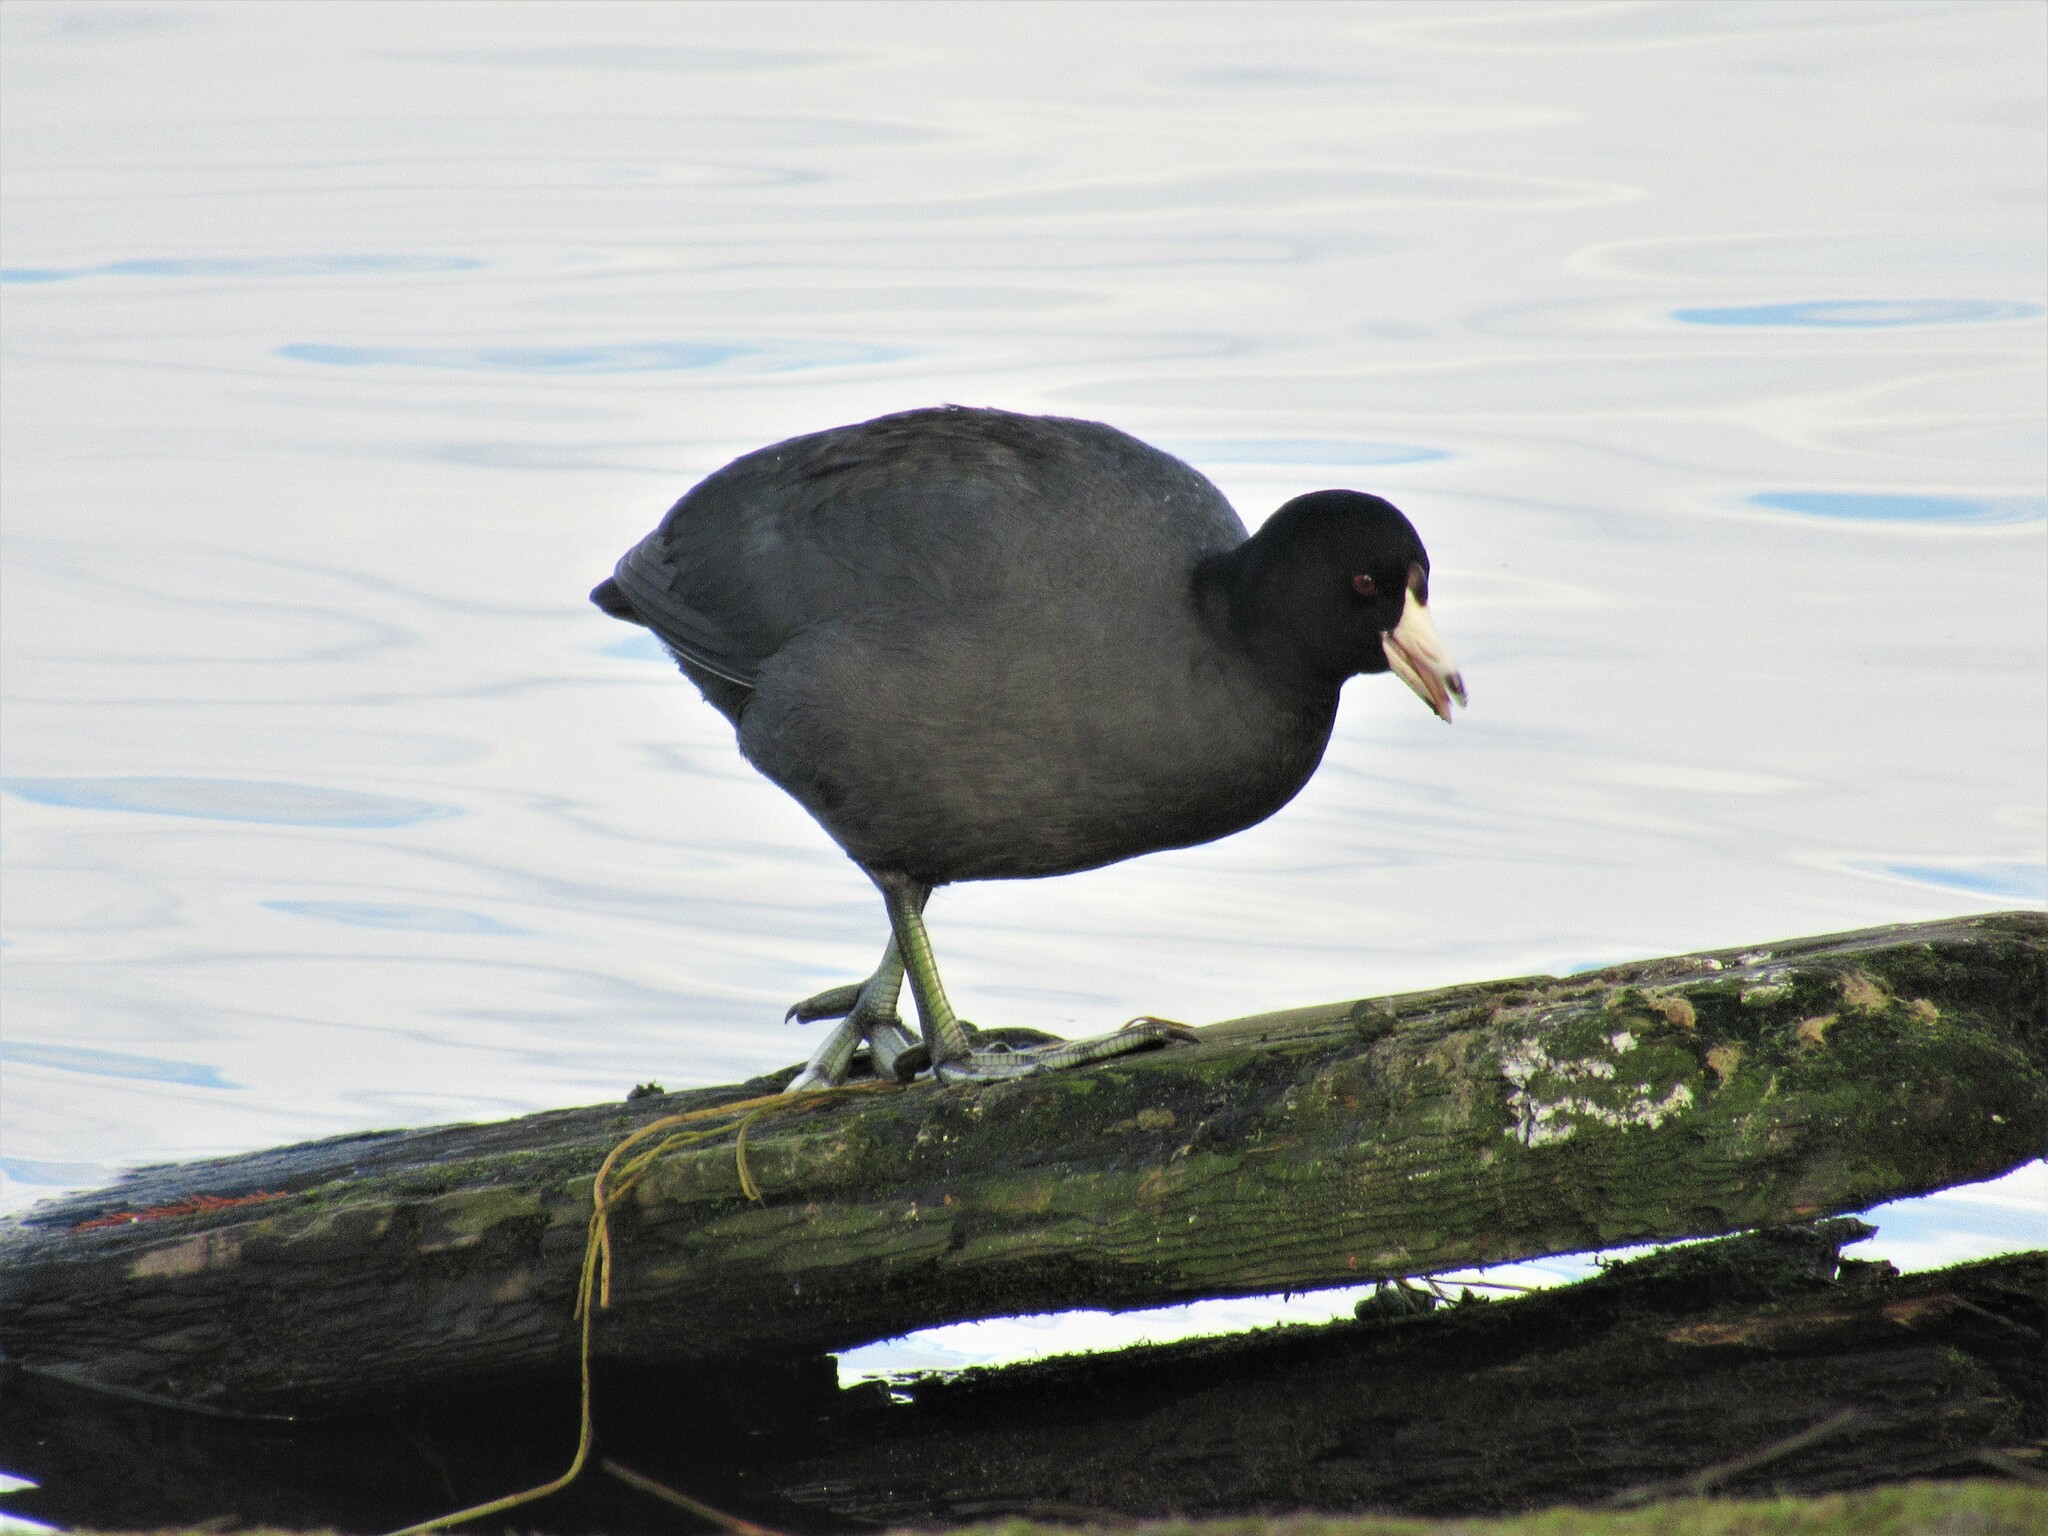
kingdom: Animalia
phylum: Chordata
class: Aves
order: Gruiformes
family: Rallidae
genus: Fulica
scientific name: Fulica americana
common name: American coot
